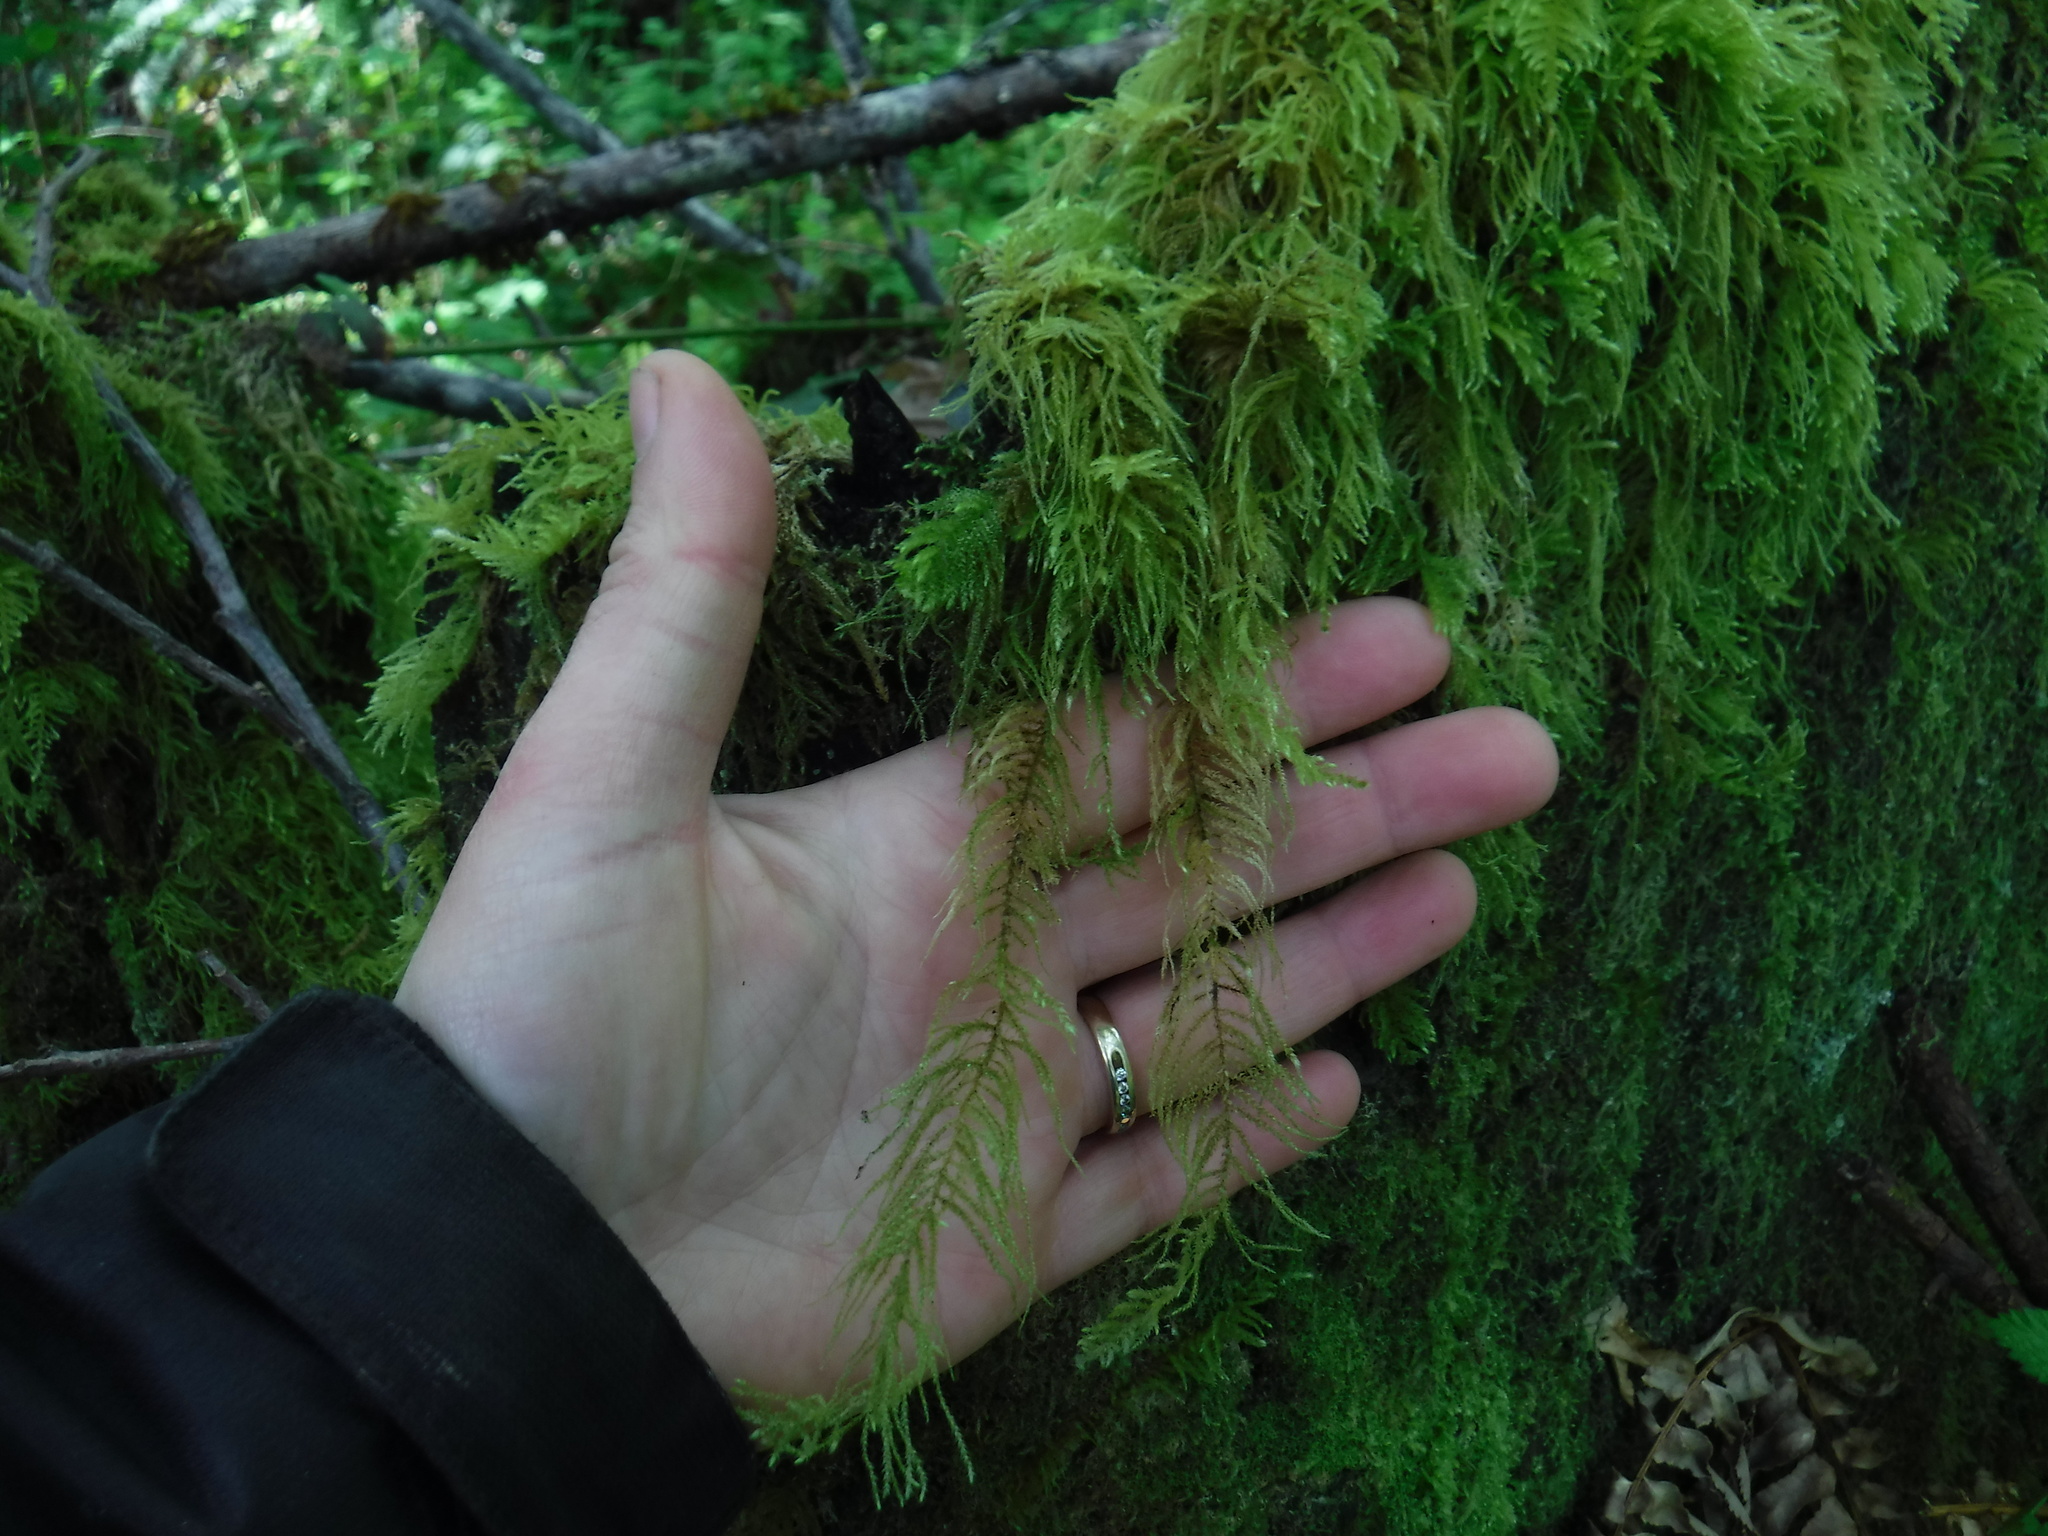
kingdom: Plantae
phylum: Bryophyta
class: Bryopsida
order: Hypnales
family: Brachytheciaceae
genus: Kindbergia
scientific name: Kindbergia oregana
